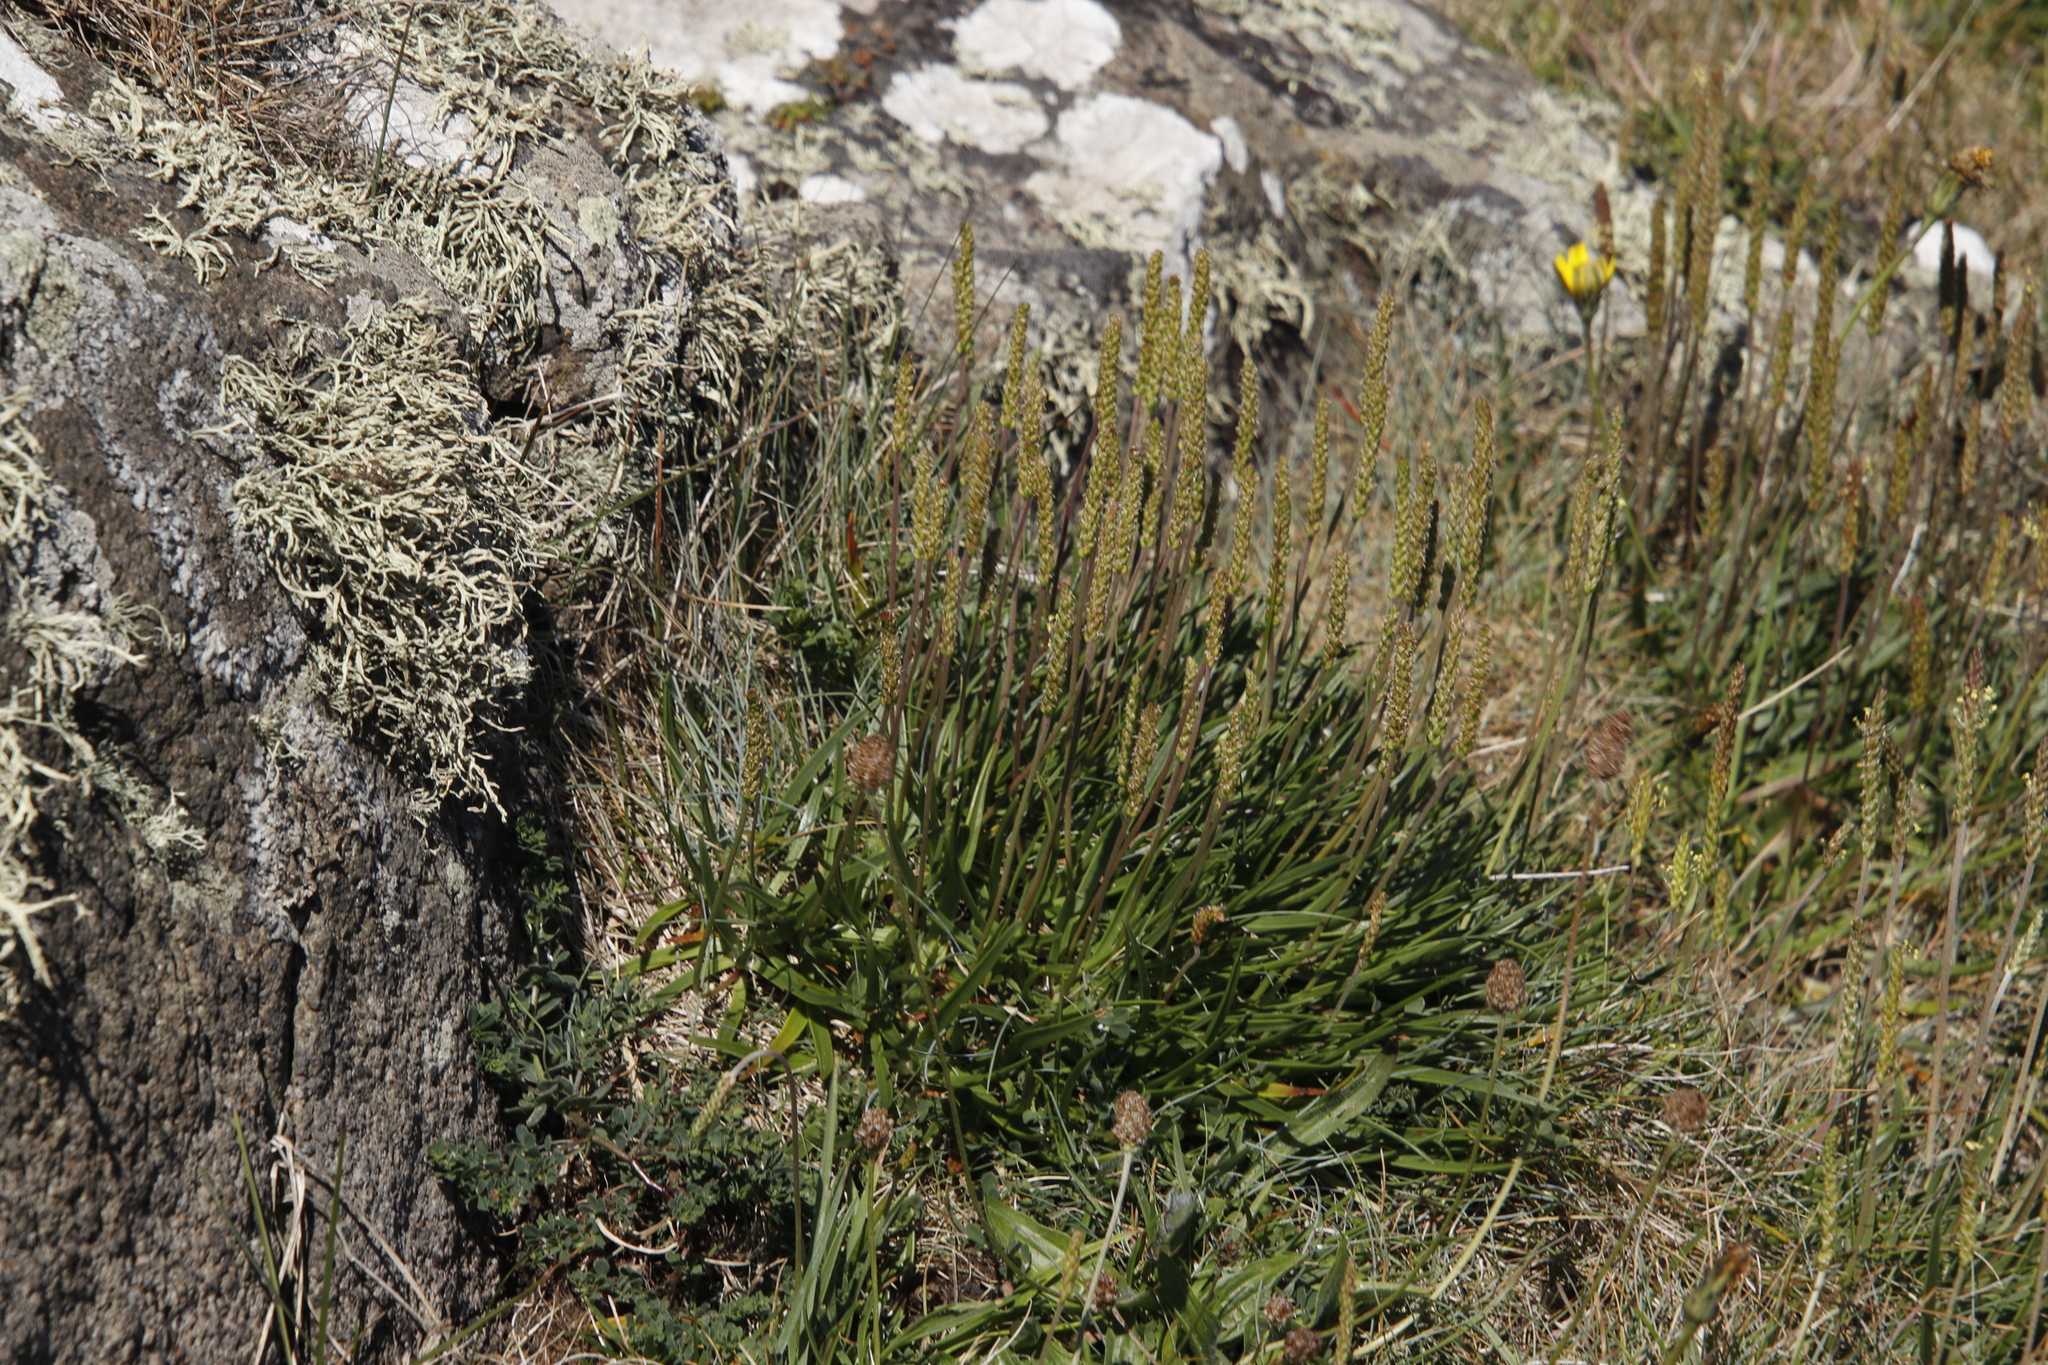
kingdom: Plantae
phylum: Tracheophyta
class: Magnoliopsida
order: Lamiales
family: Plantaginaceae
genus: Plantago
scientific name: Plantago maritima
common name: Sea plantain
